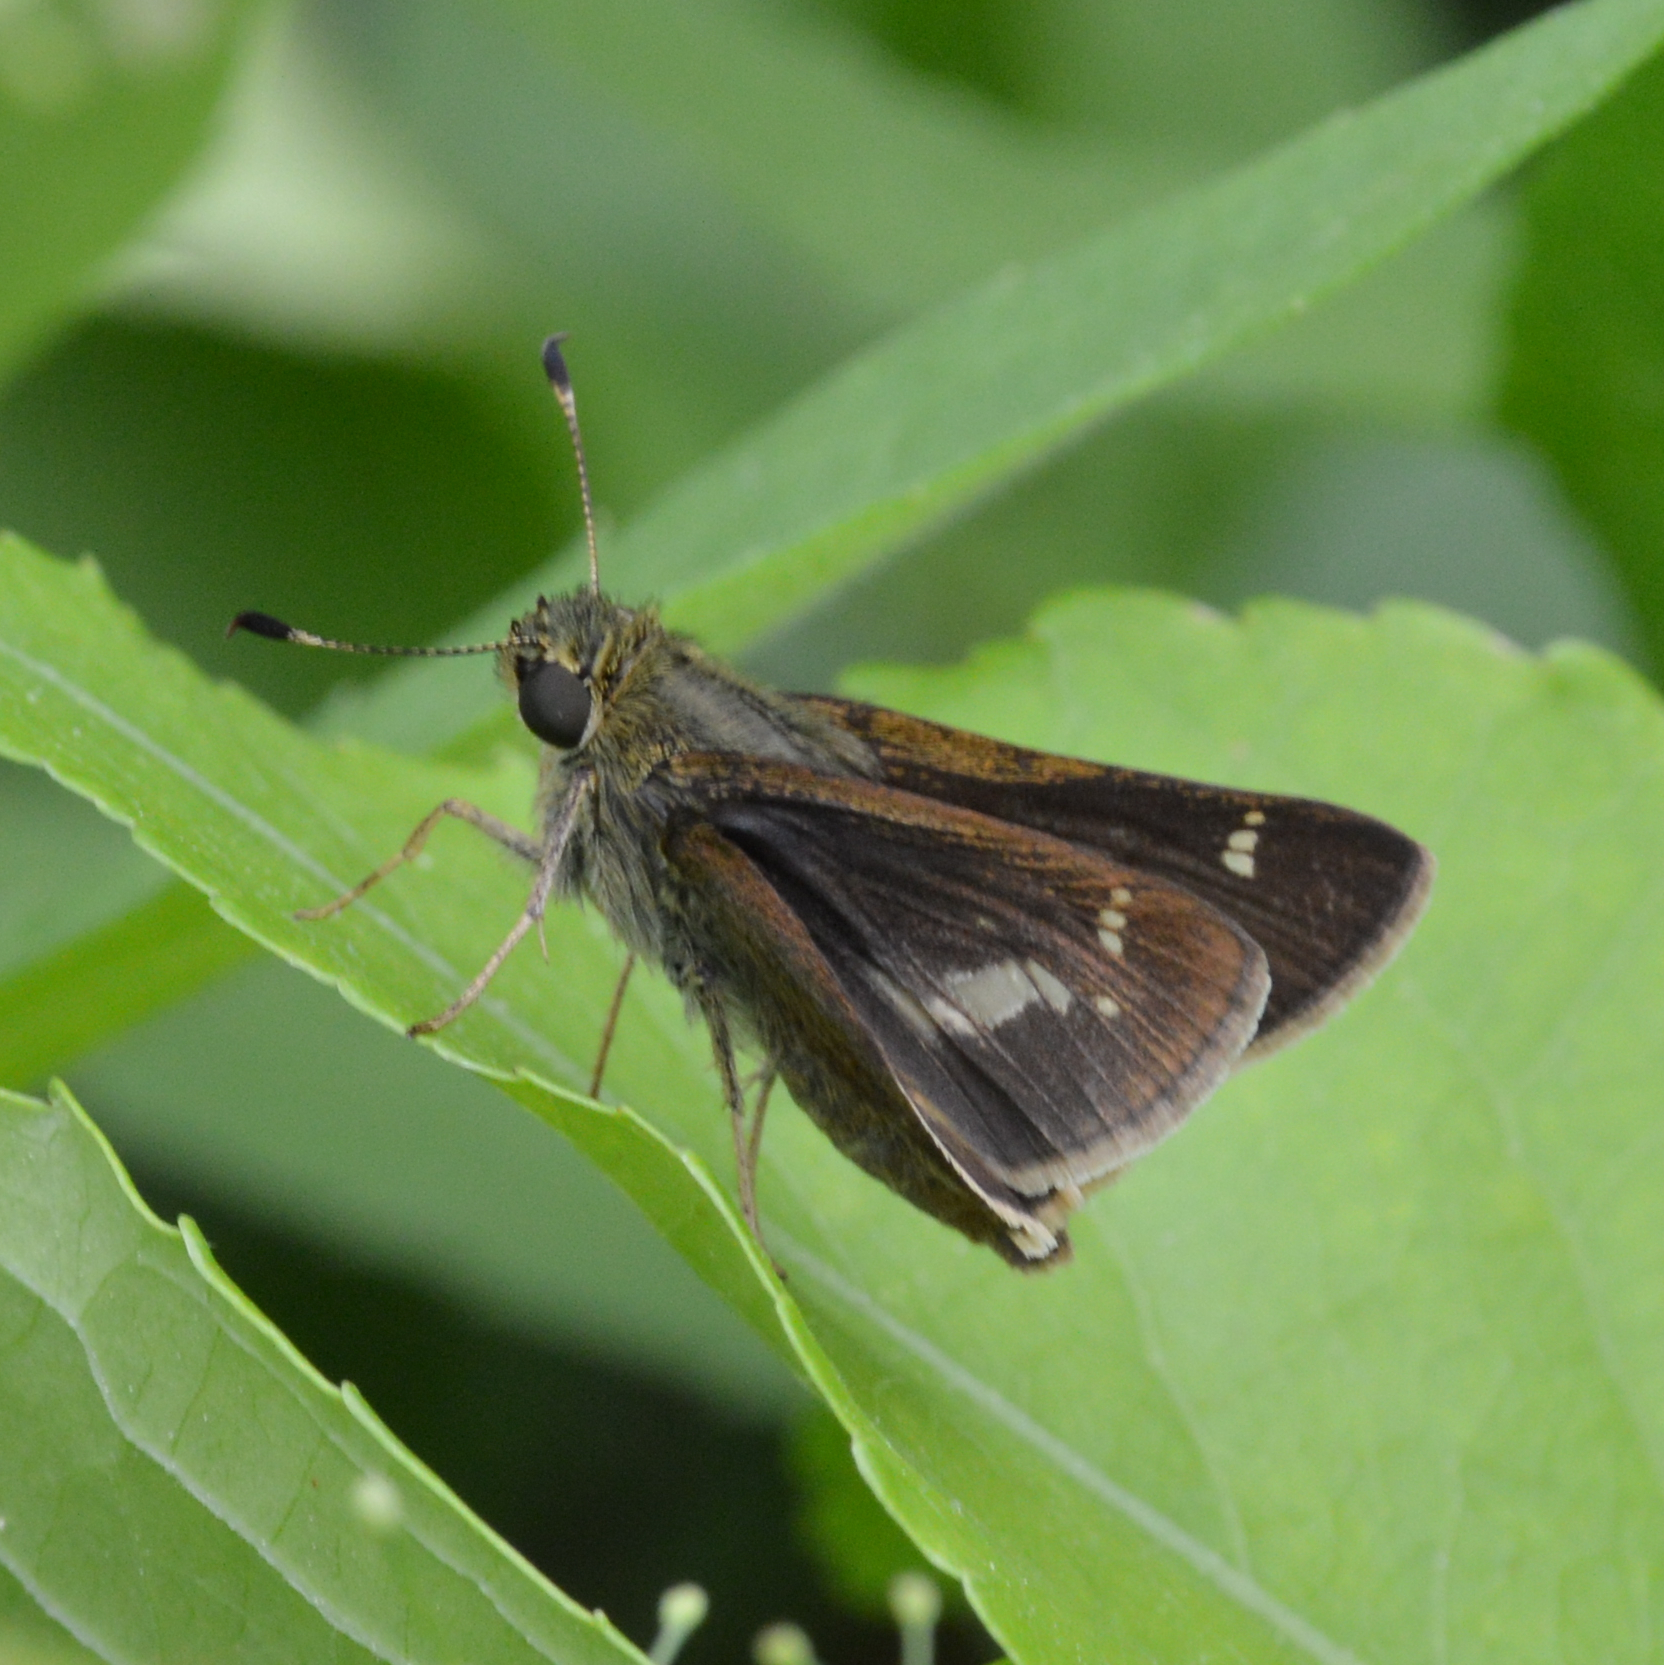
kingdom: Animalia
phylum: Arthropoda
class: Insecta
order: Lepidoptera
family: Hesperiidae
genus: Vernia
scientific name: Vernia verna
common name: Little glassywing
